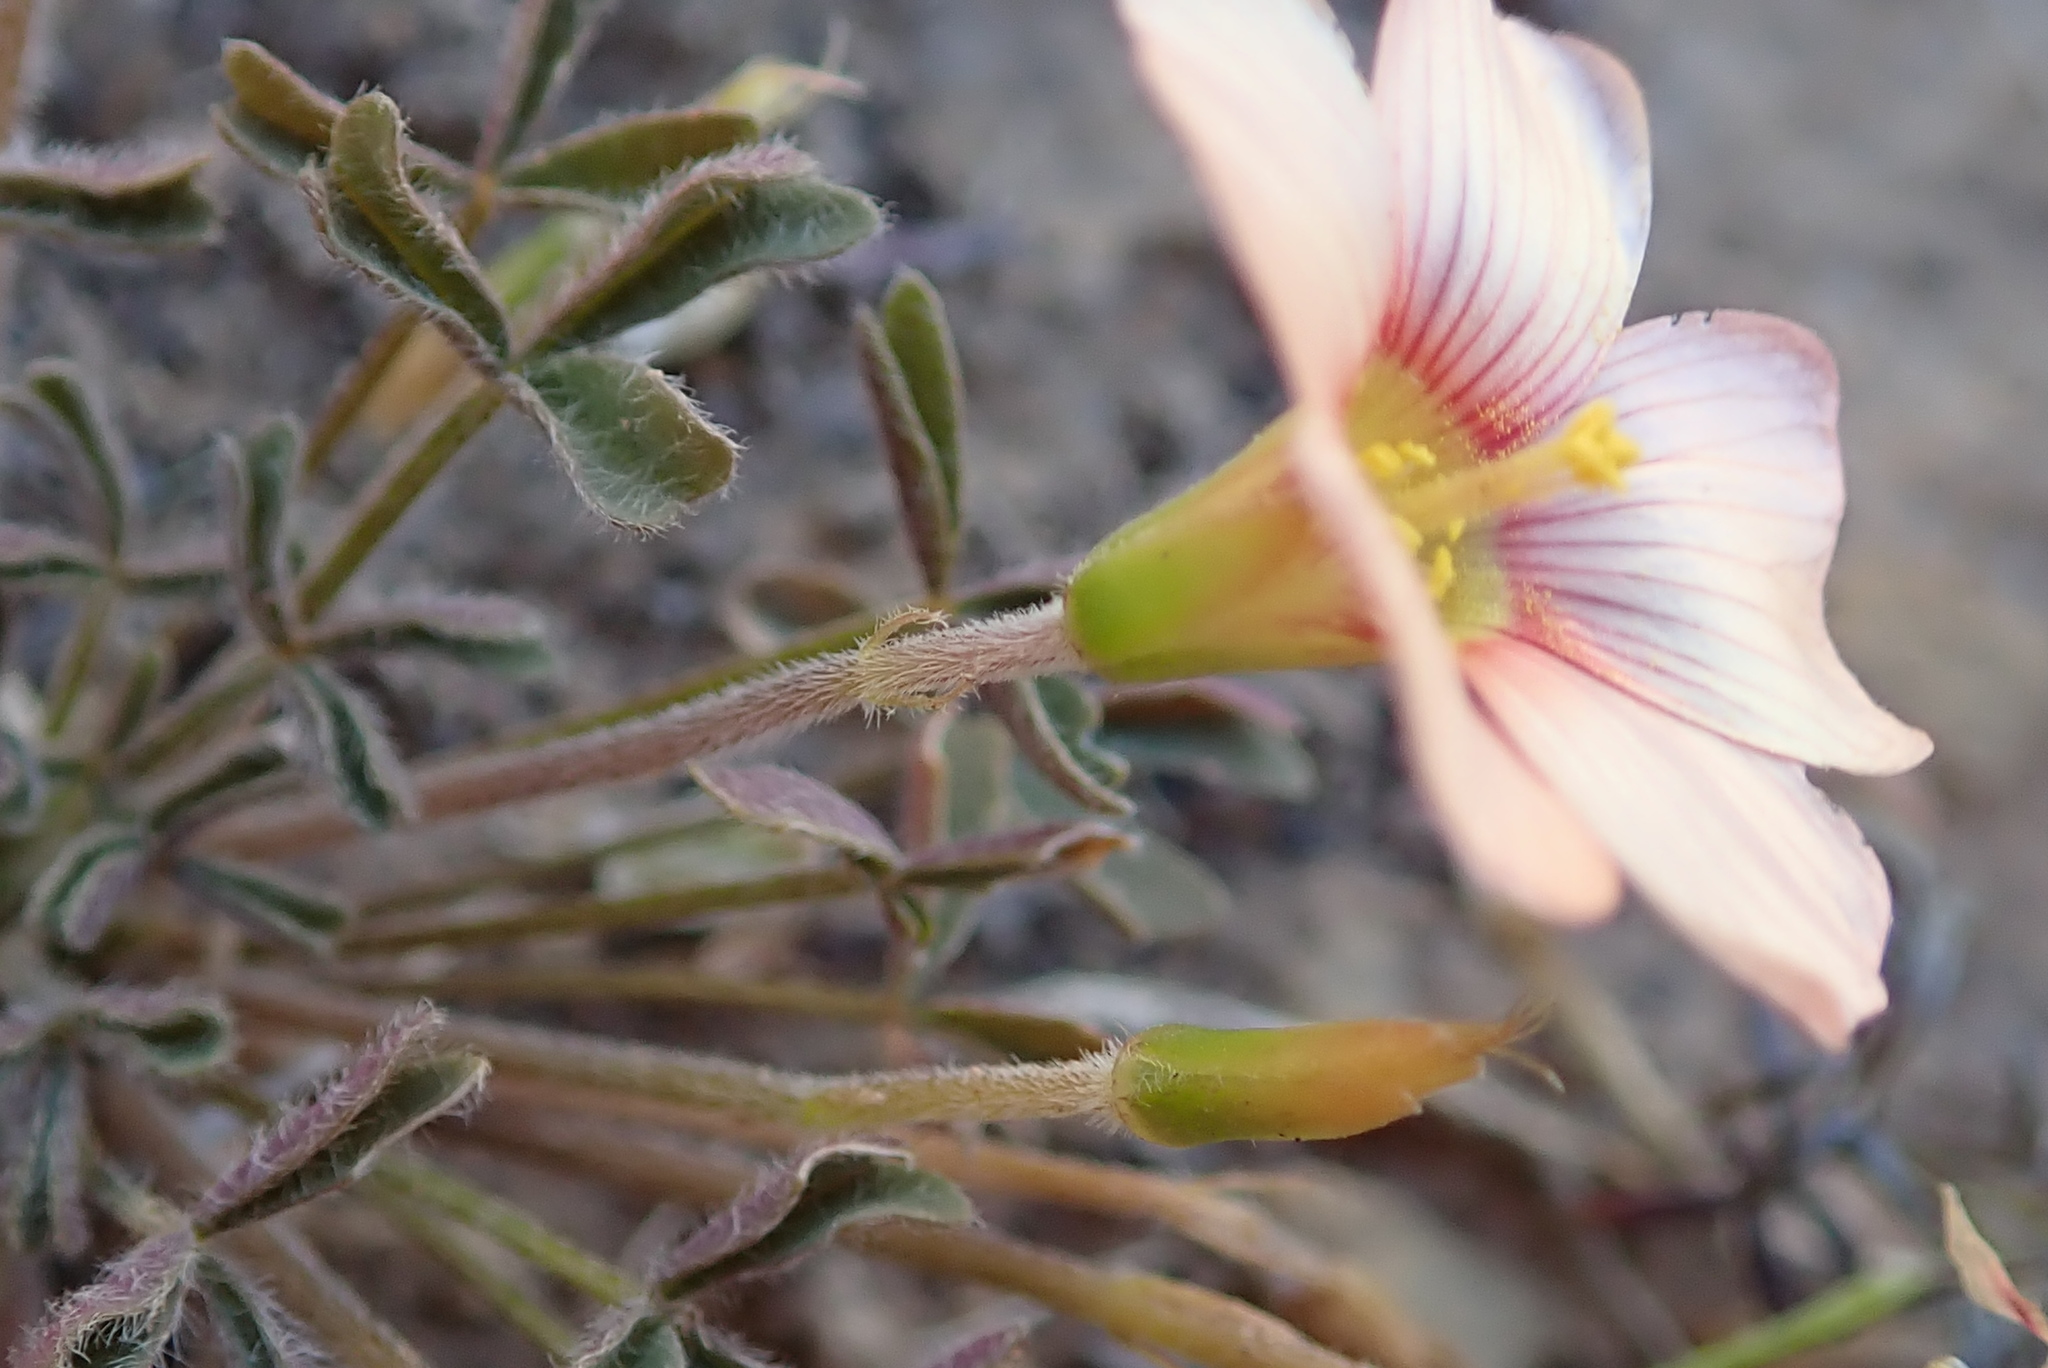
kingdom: Plantae
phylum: Tracheophyta
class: Magnoliopsida
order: Oxalidales
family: Oxalidaceae
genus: Oxalis
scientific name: Oxalis obtusa
